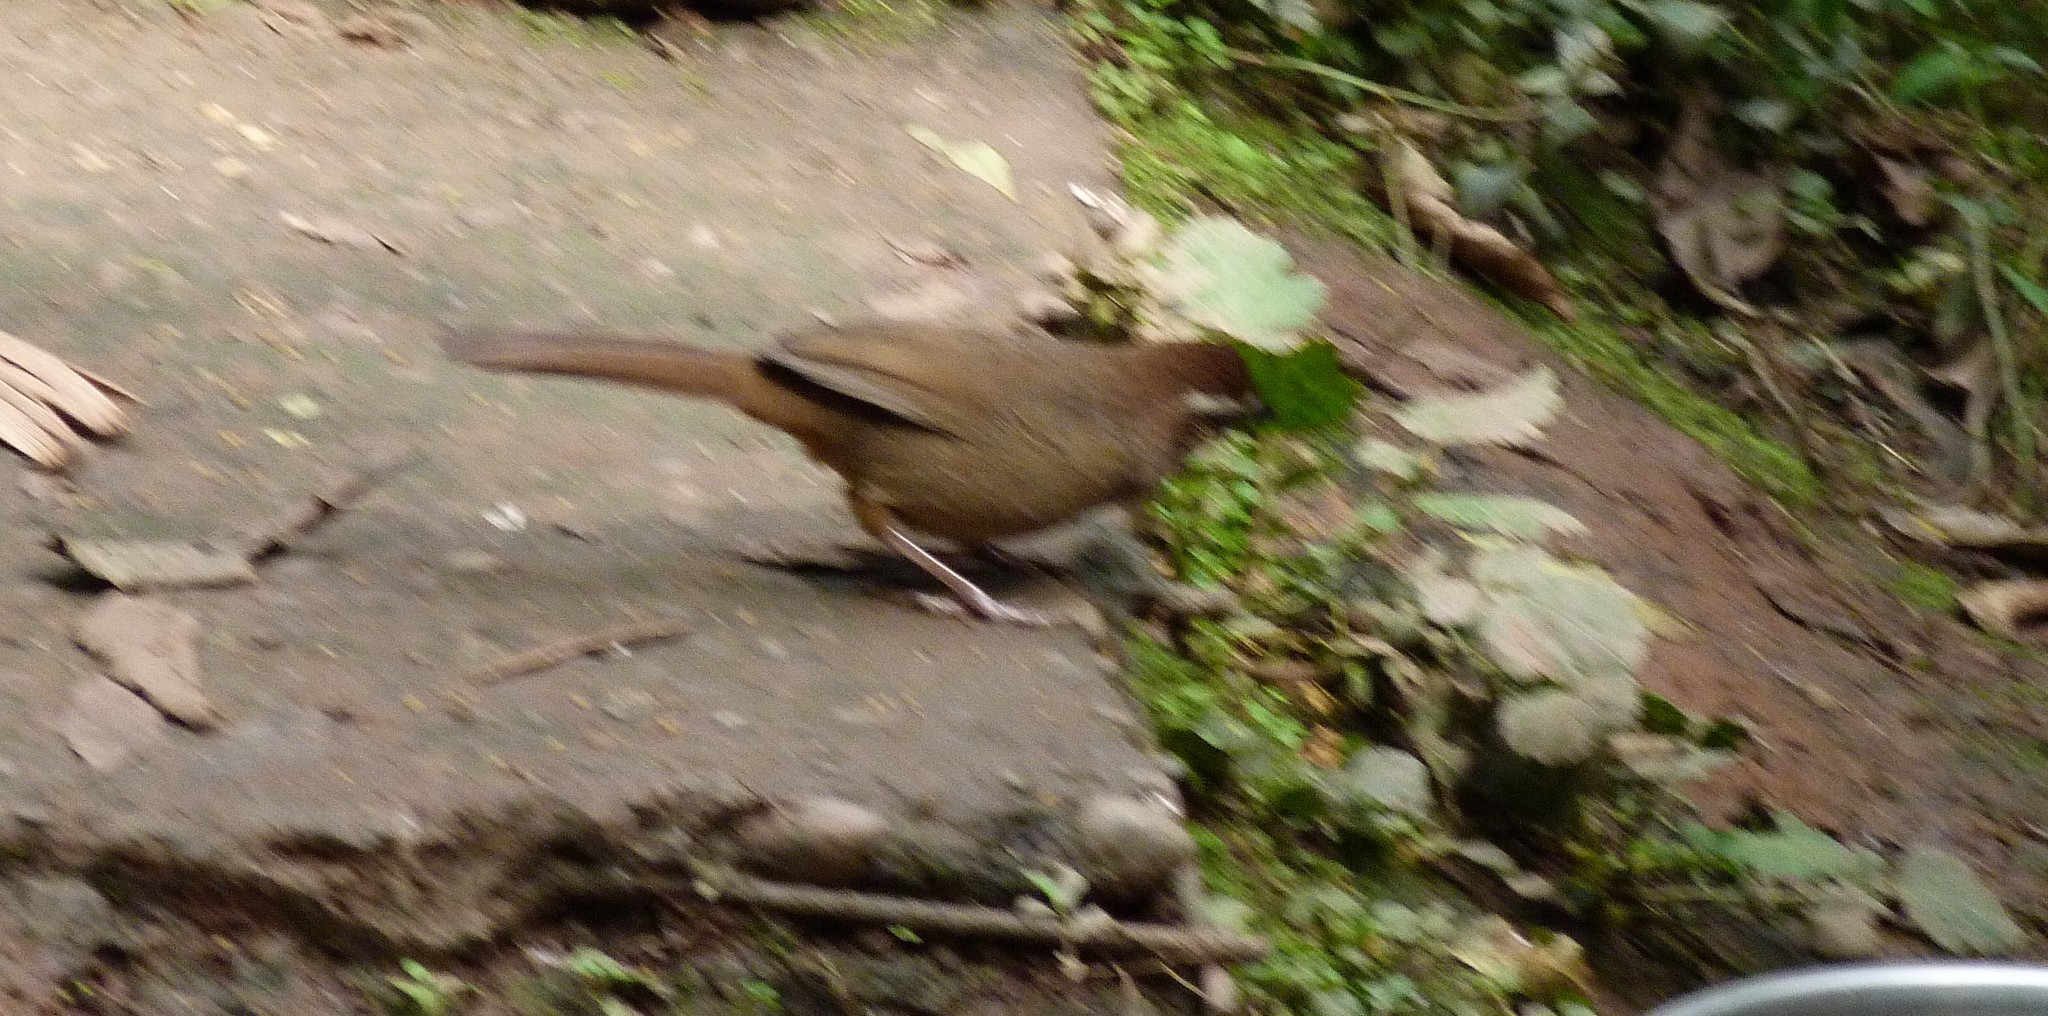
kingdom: Animalia
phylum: Chordata
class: Aves
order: Passeriformes
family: Leiothrichidae
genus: Pterorhinus
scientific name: Pterorhinus sannio
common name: White-browed laughingthrush
